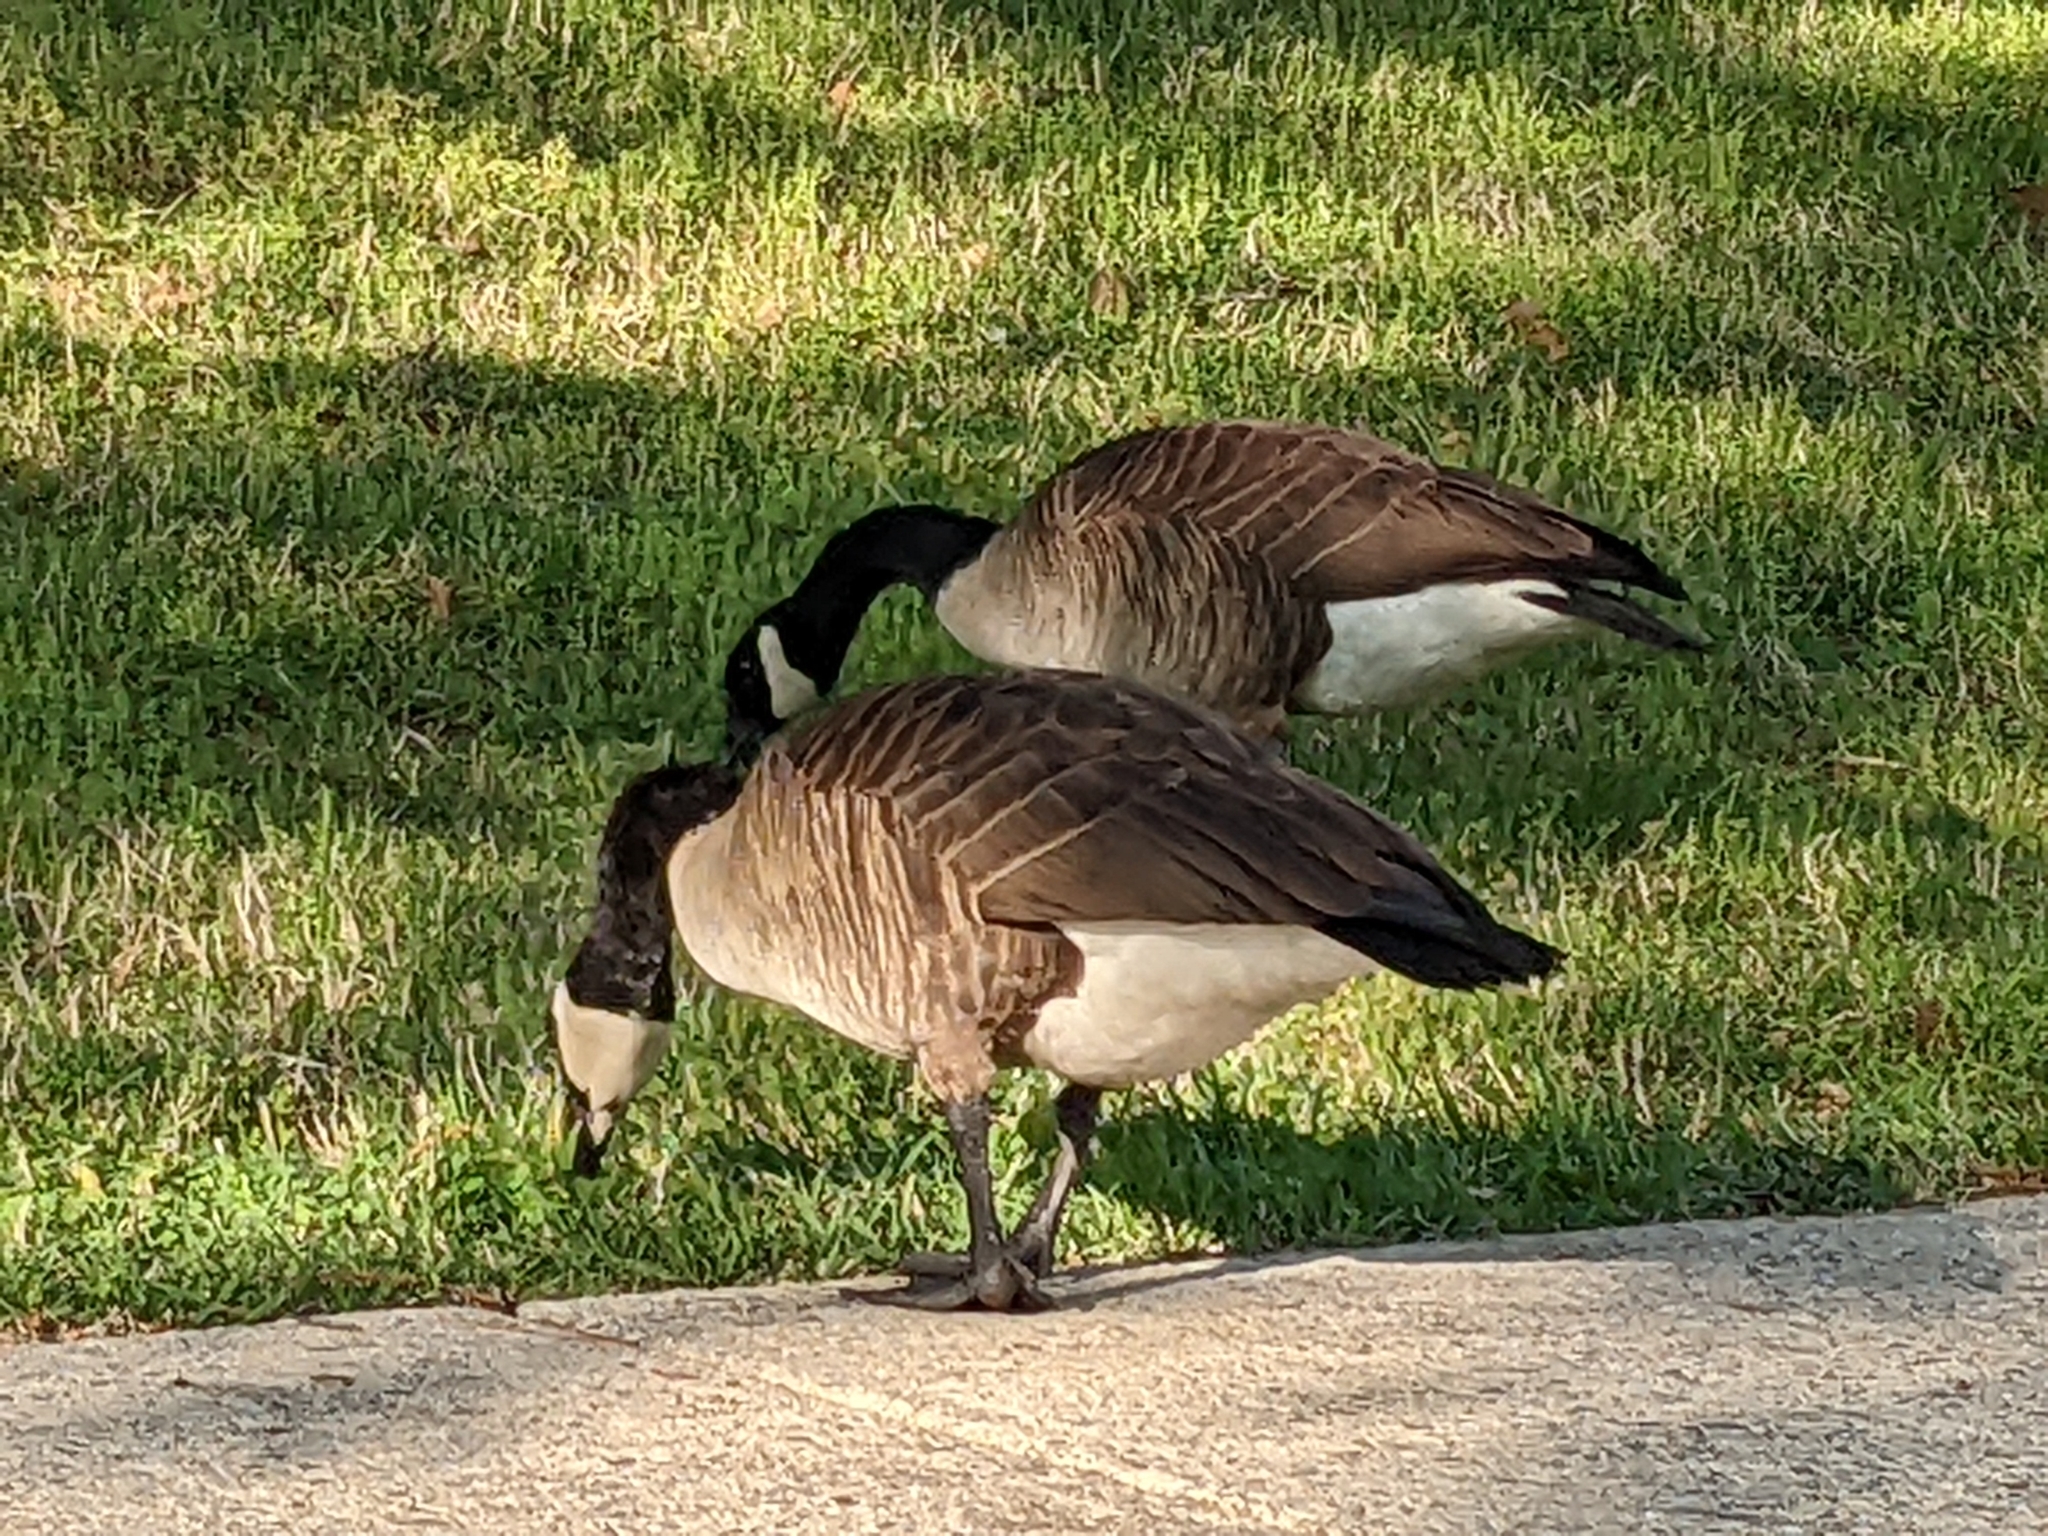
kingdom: Animalia
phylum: Chordata
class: Aves
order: Anseriformes
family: Anatidae
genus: Branta
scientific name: Branta canadensis
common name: Canada goose
